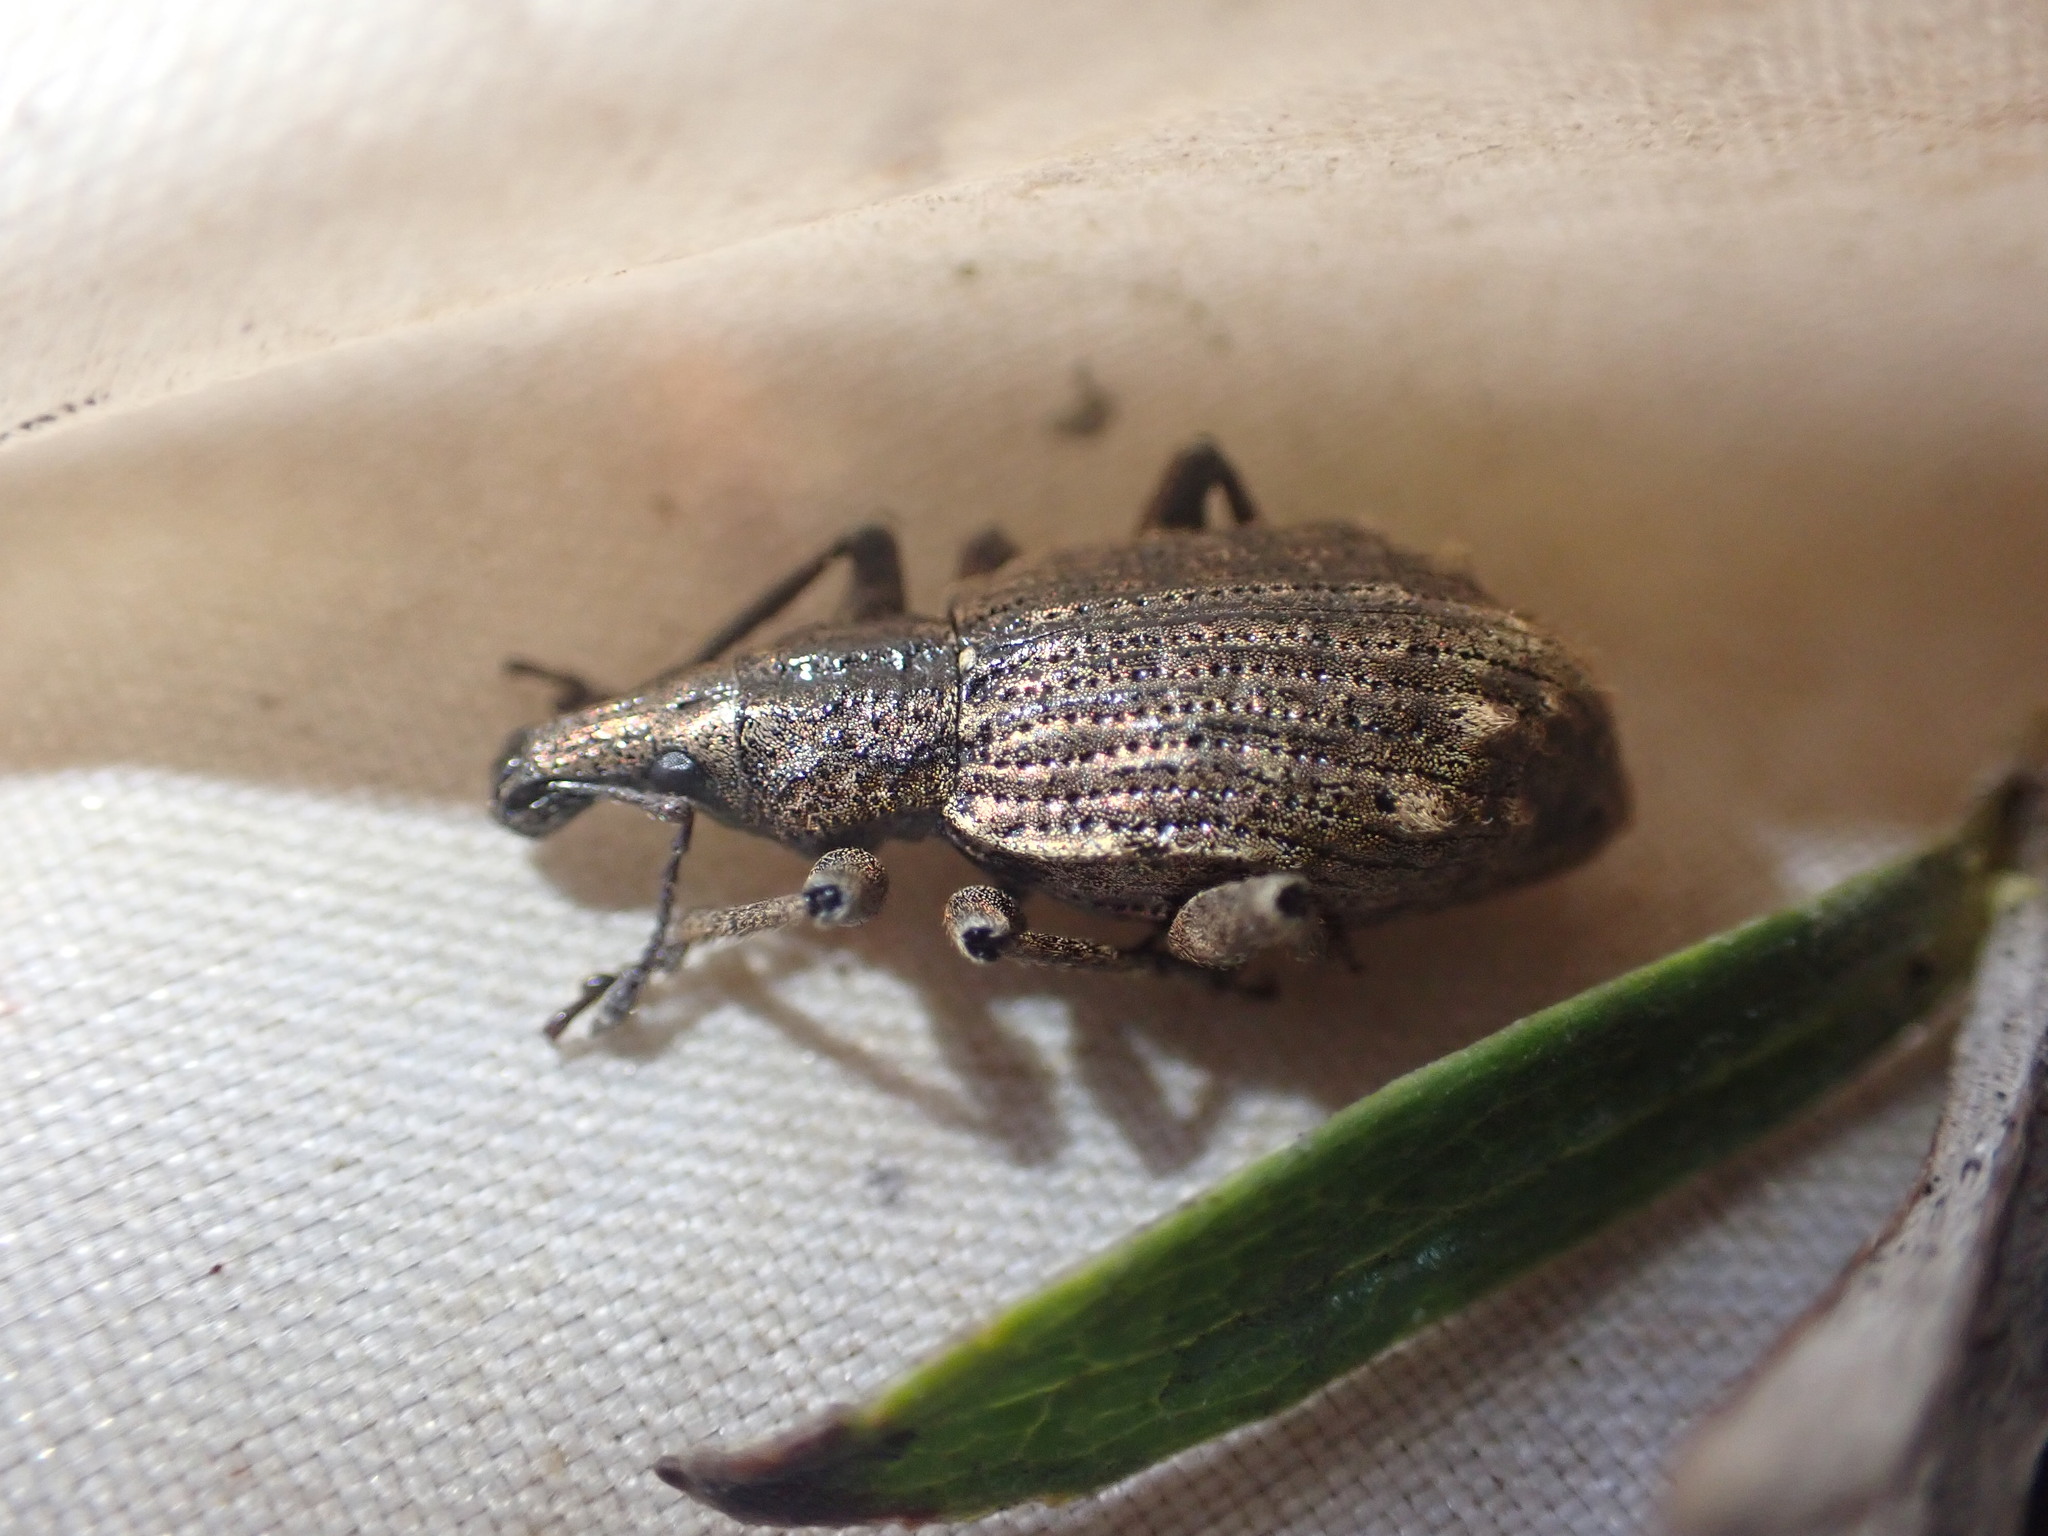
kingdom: Animalia
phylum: Arthropoda
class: Insecta
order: Coleoptera
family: Curculionidae
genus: Catoptes
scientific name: Catoptes brevicornis
